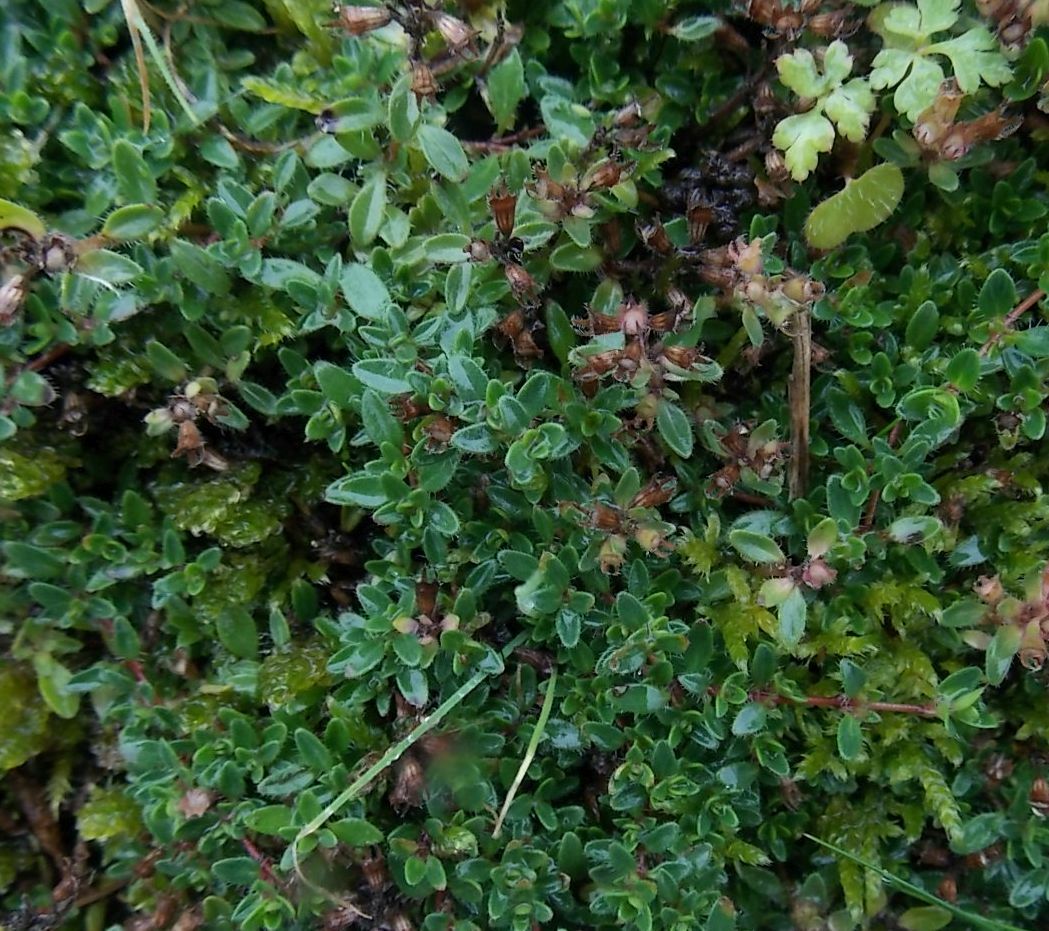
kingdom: Plantae
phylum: Tracheophyta
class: Magnoliopsida
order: Lamiales
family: Lamiaceae
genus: Thymus
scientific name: Thymus praecox
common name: Wild thyme
